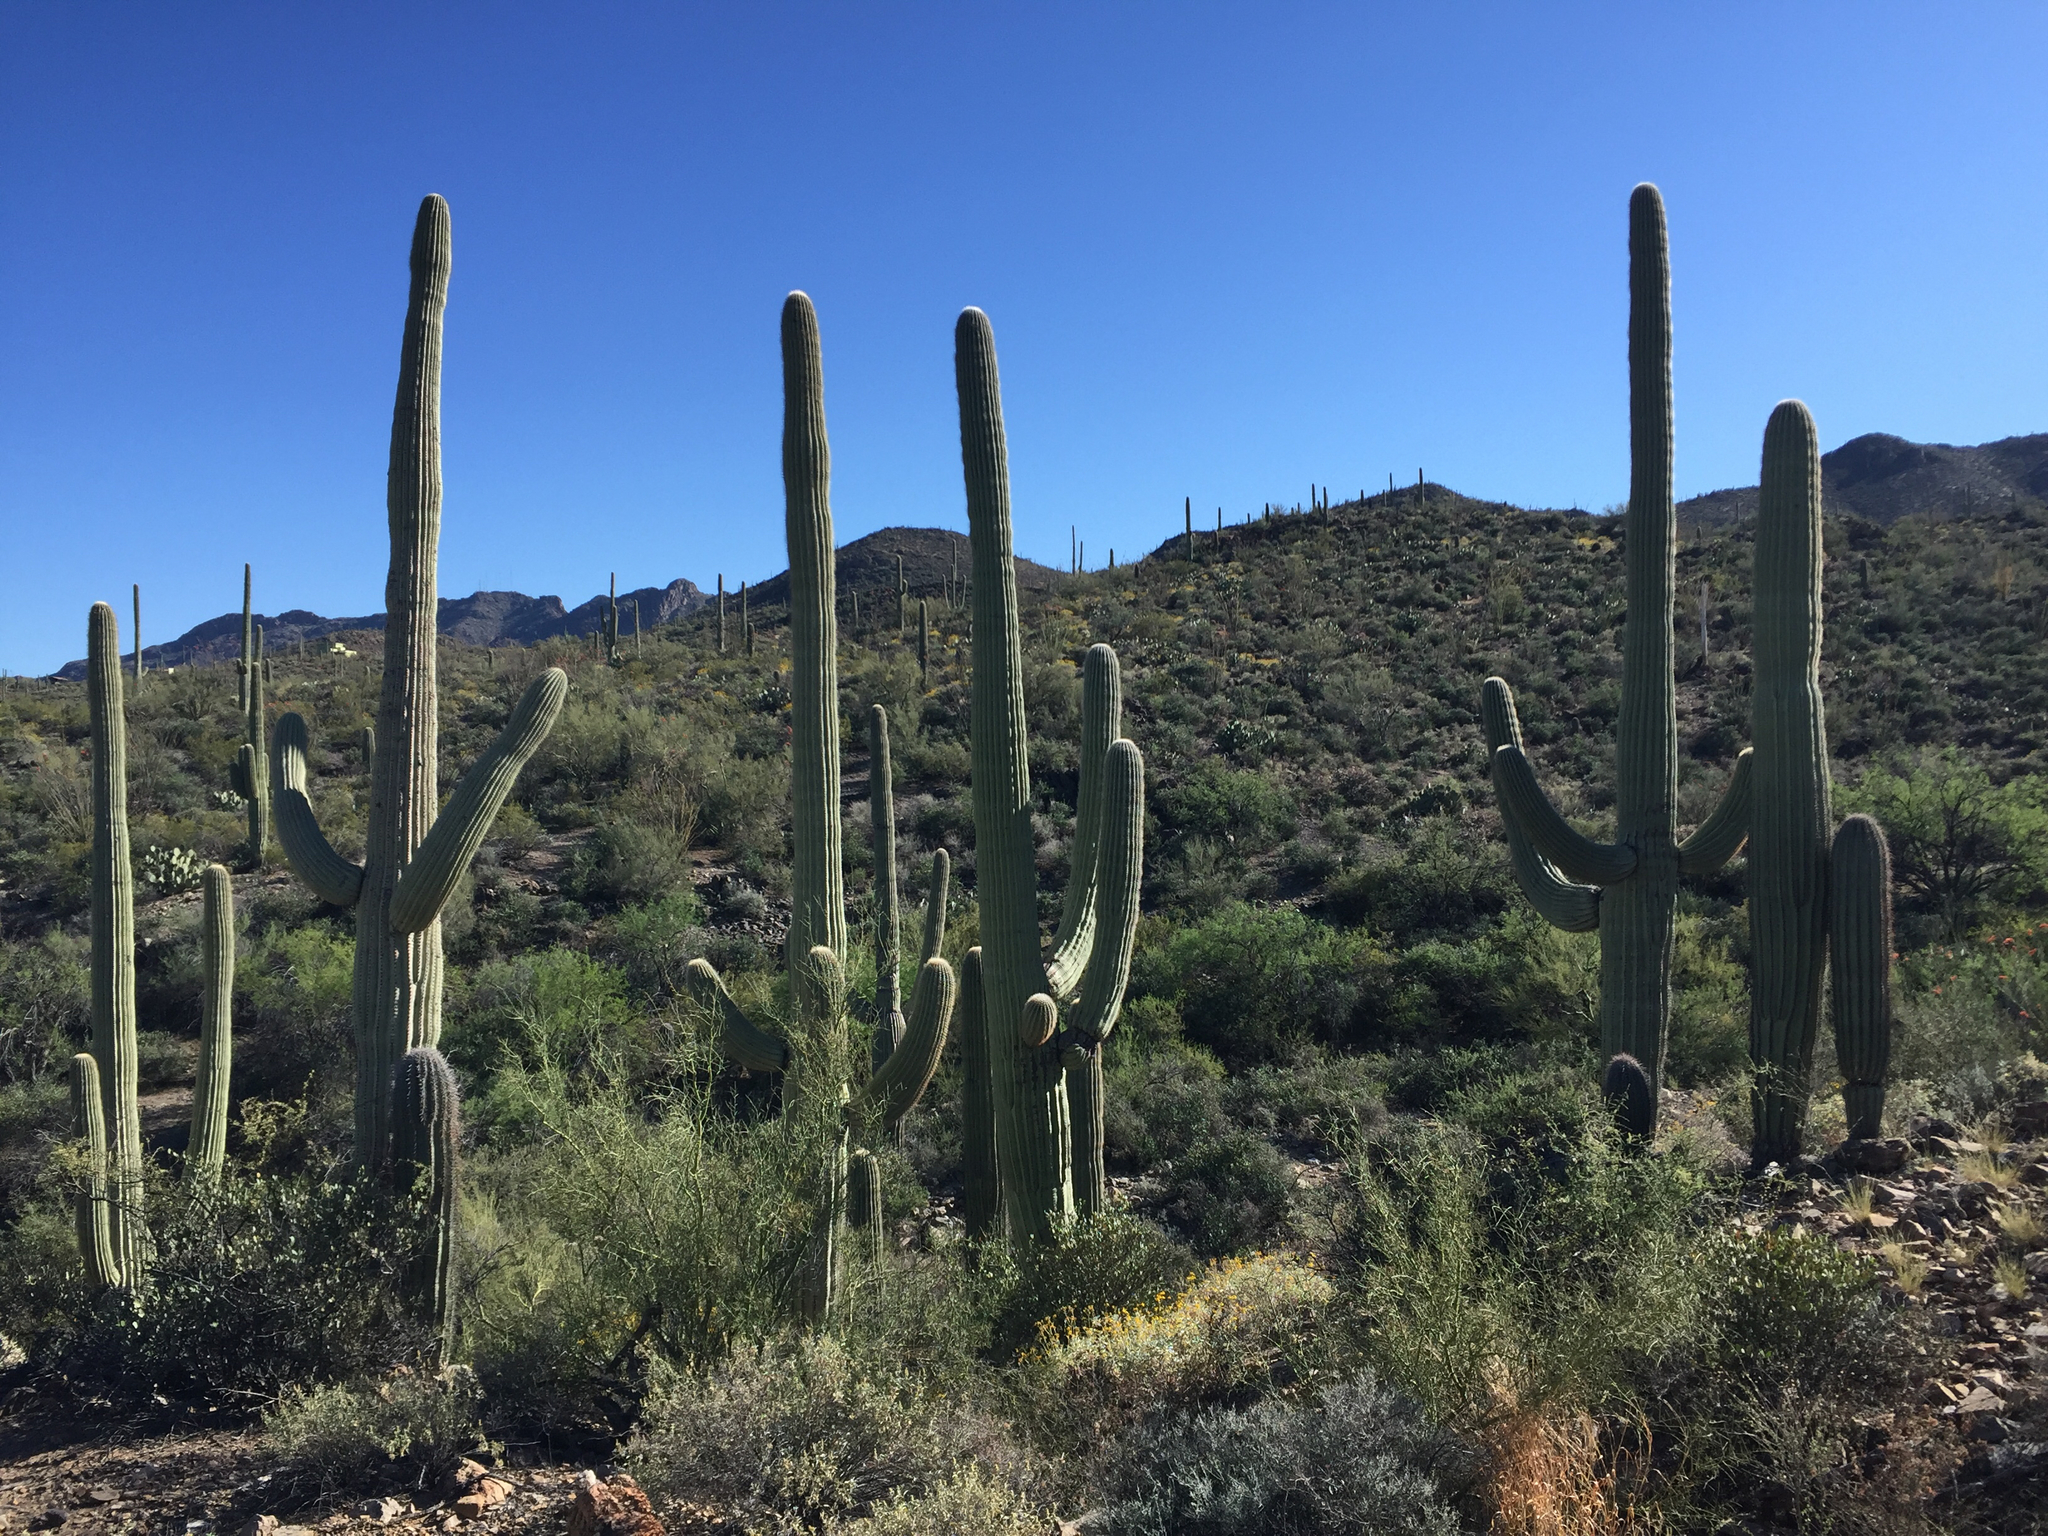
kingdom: Plantae
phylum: Tracheophyta
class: Magnoliopsida
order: Caryophyllales
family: Cactaceae
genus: Carnegiea
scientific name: Carnegiea gigantea
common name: Saguaro
